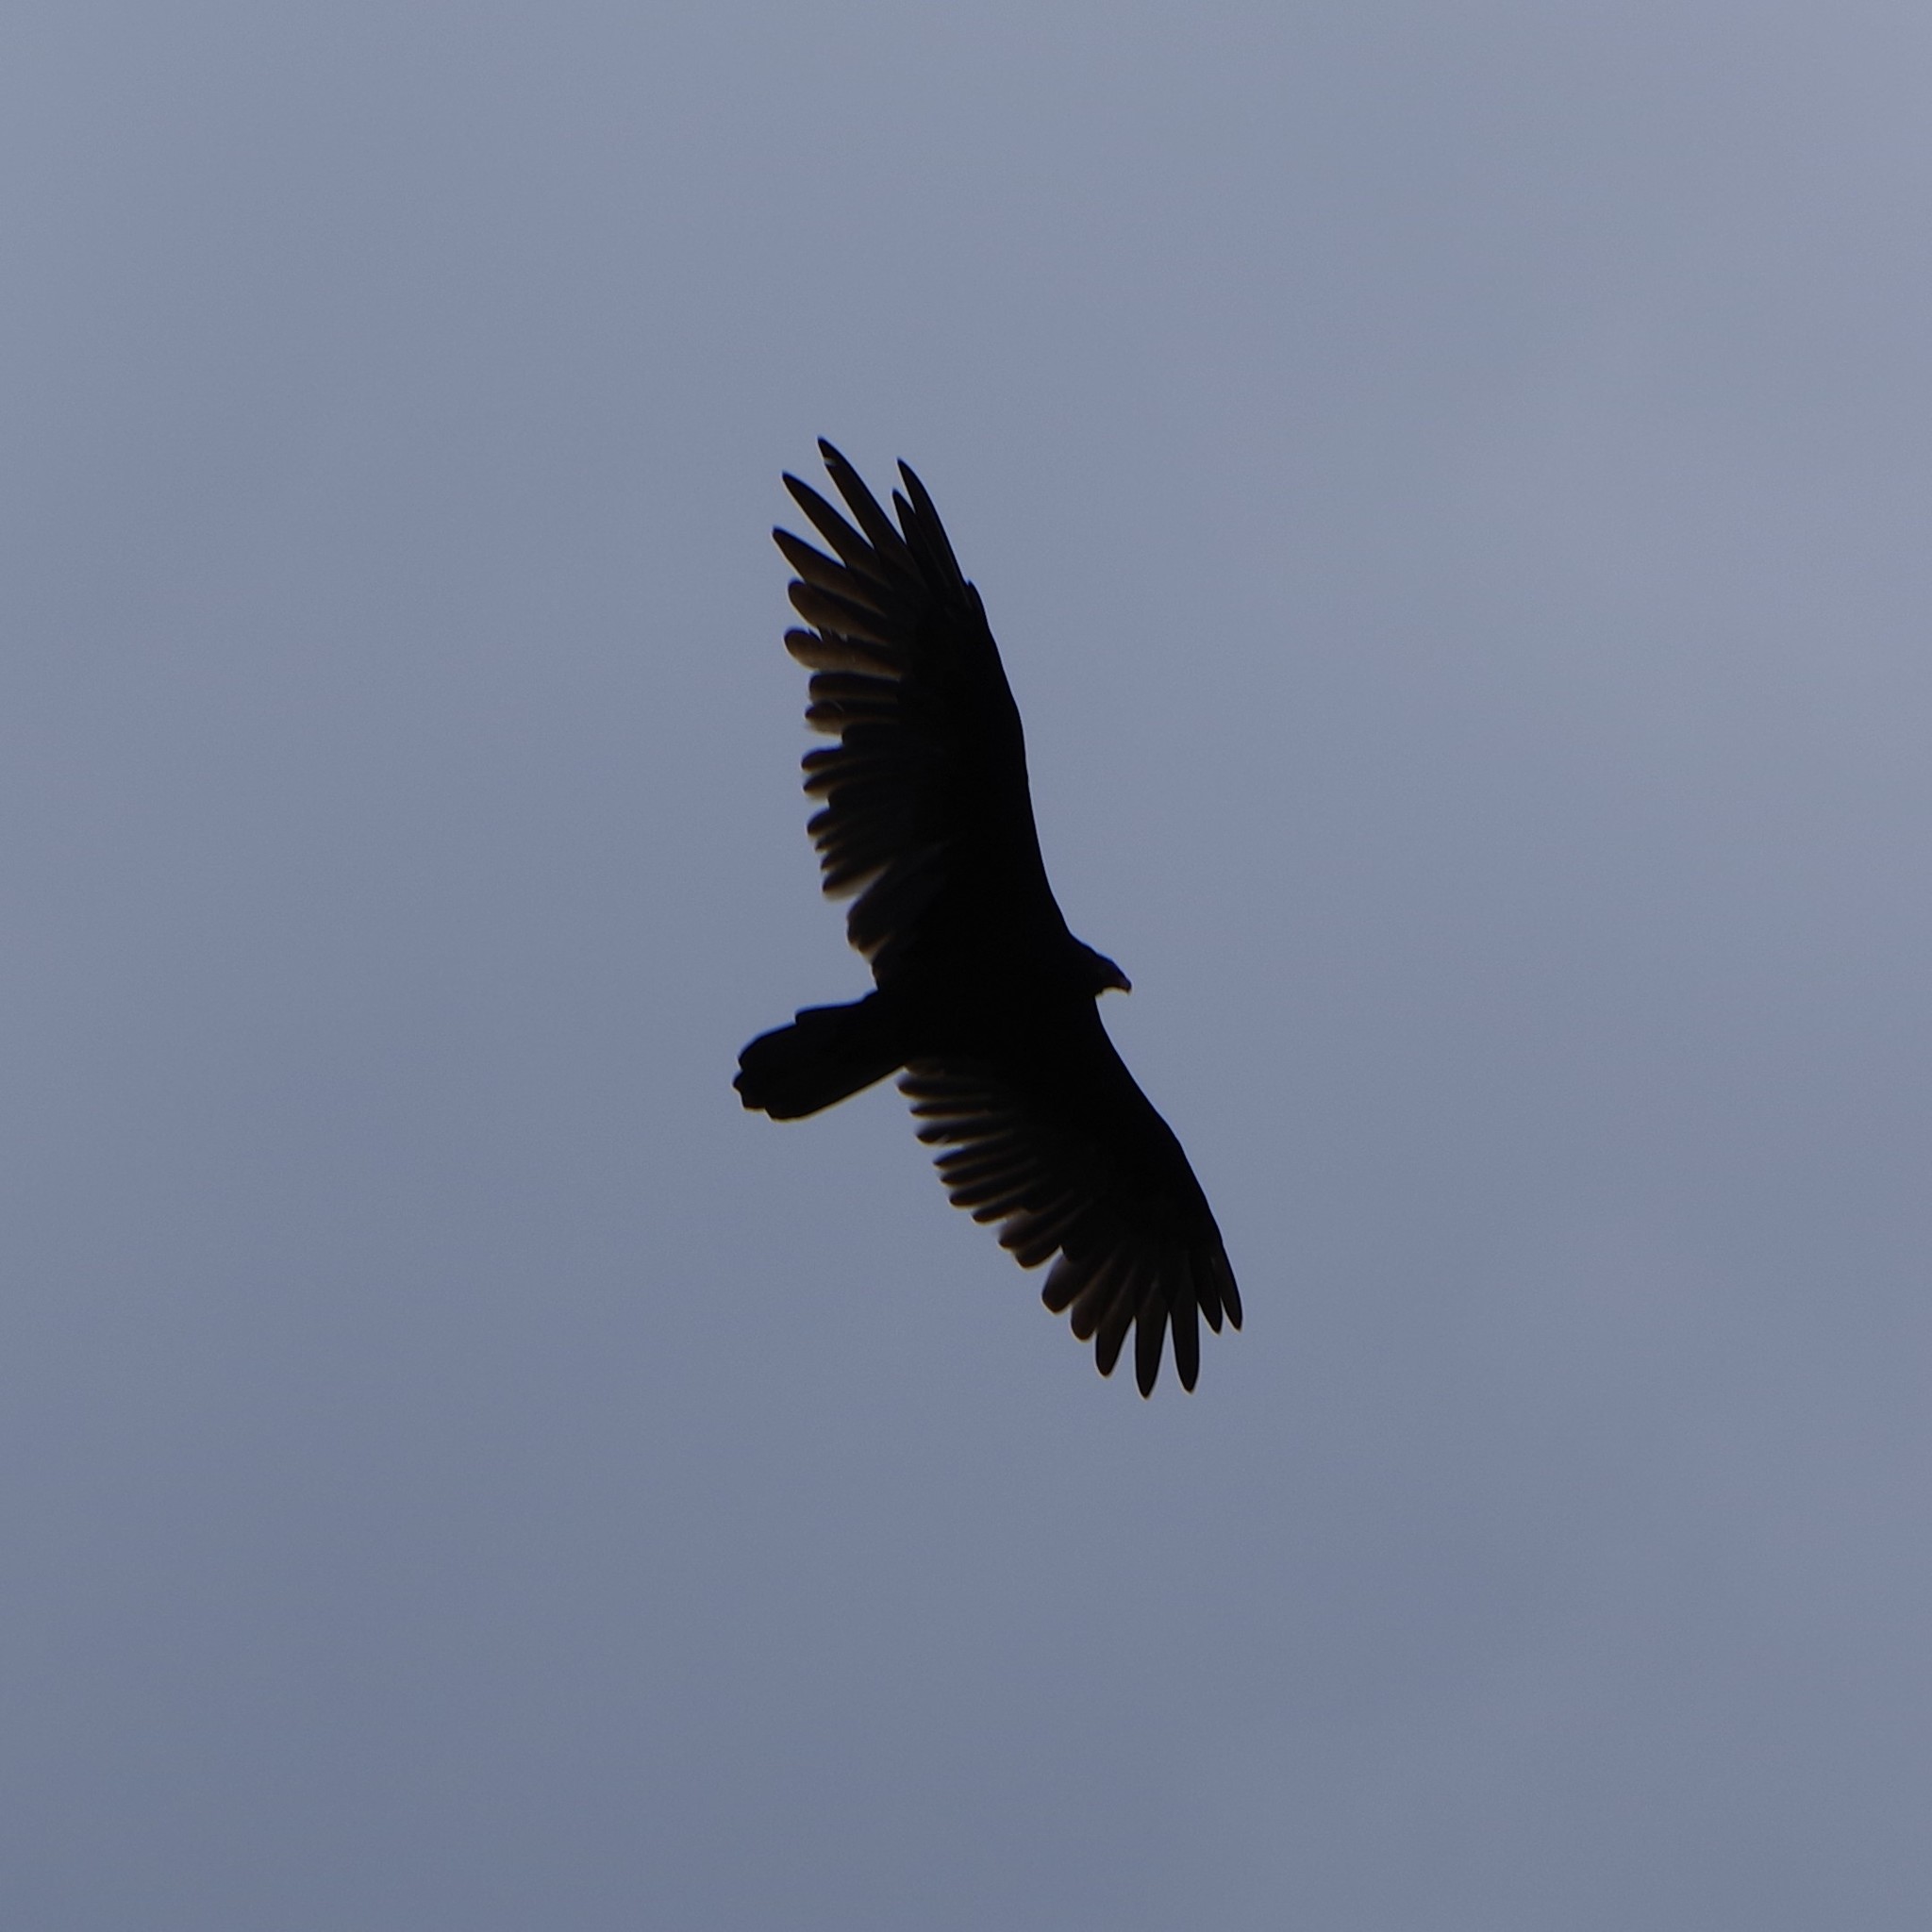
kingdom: Animalia
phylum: Chordata
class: Aves
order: Accipitriformes
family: Cathartidae
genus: Cathartes
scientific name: Cathartes aura
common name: Turkey vulture
